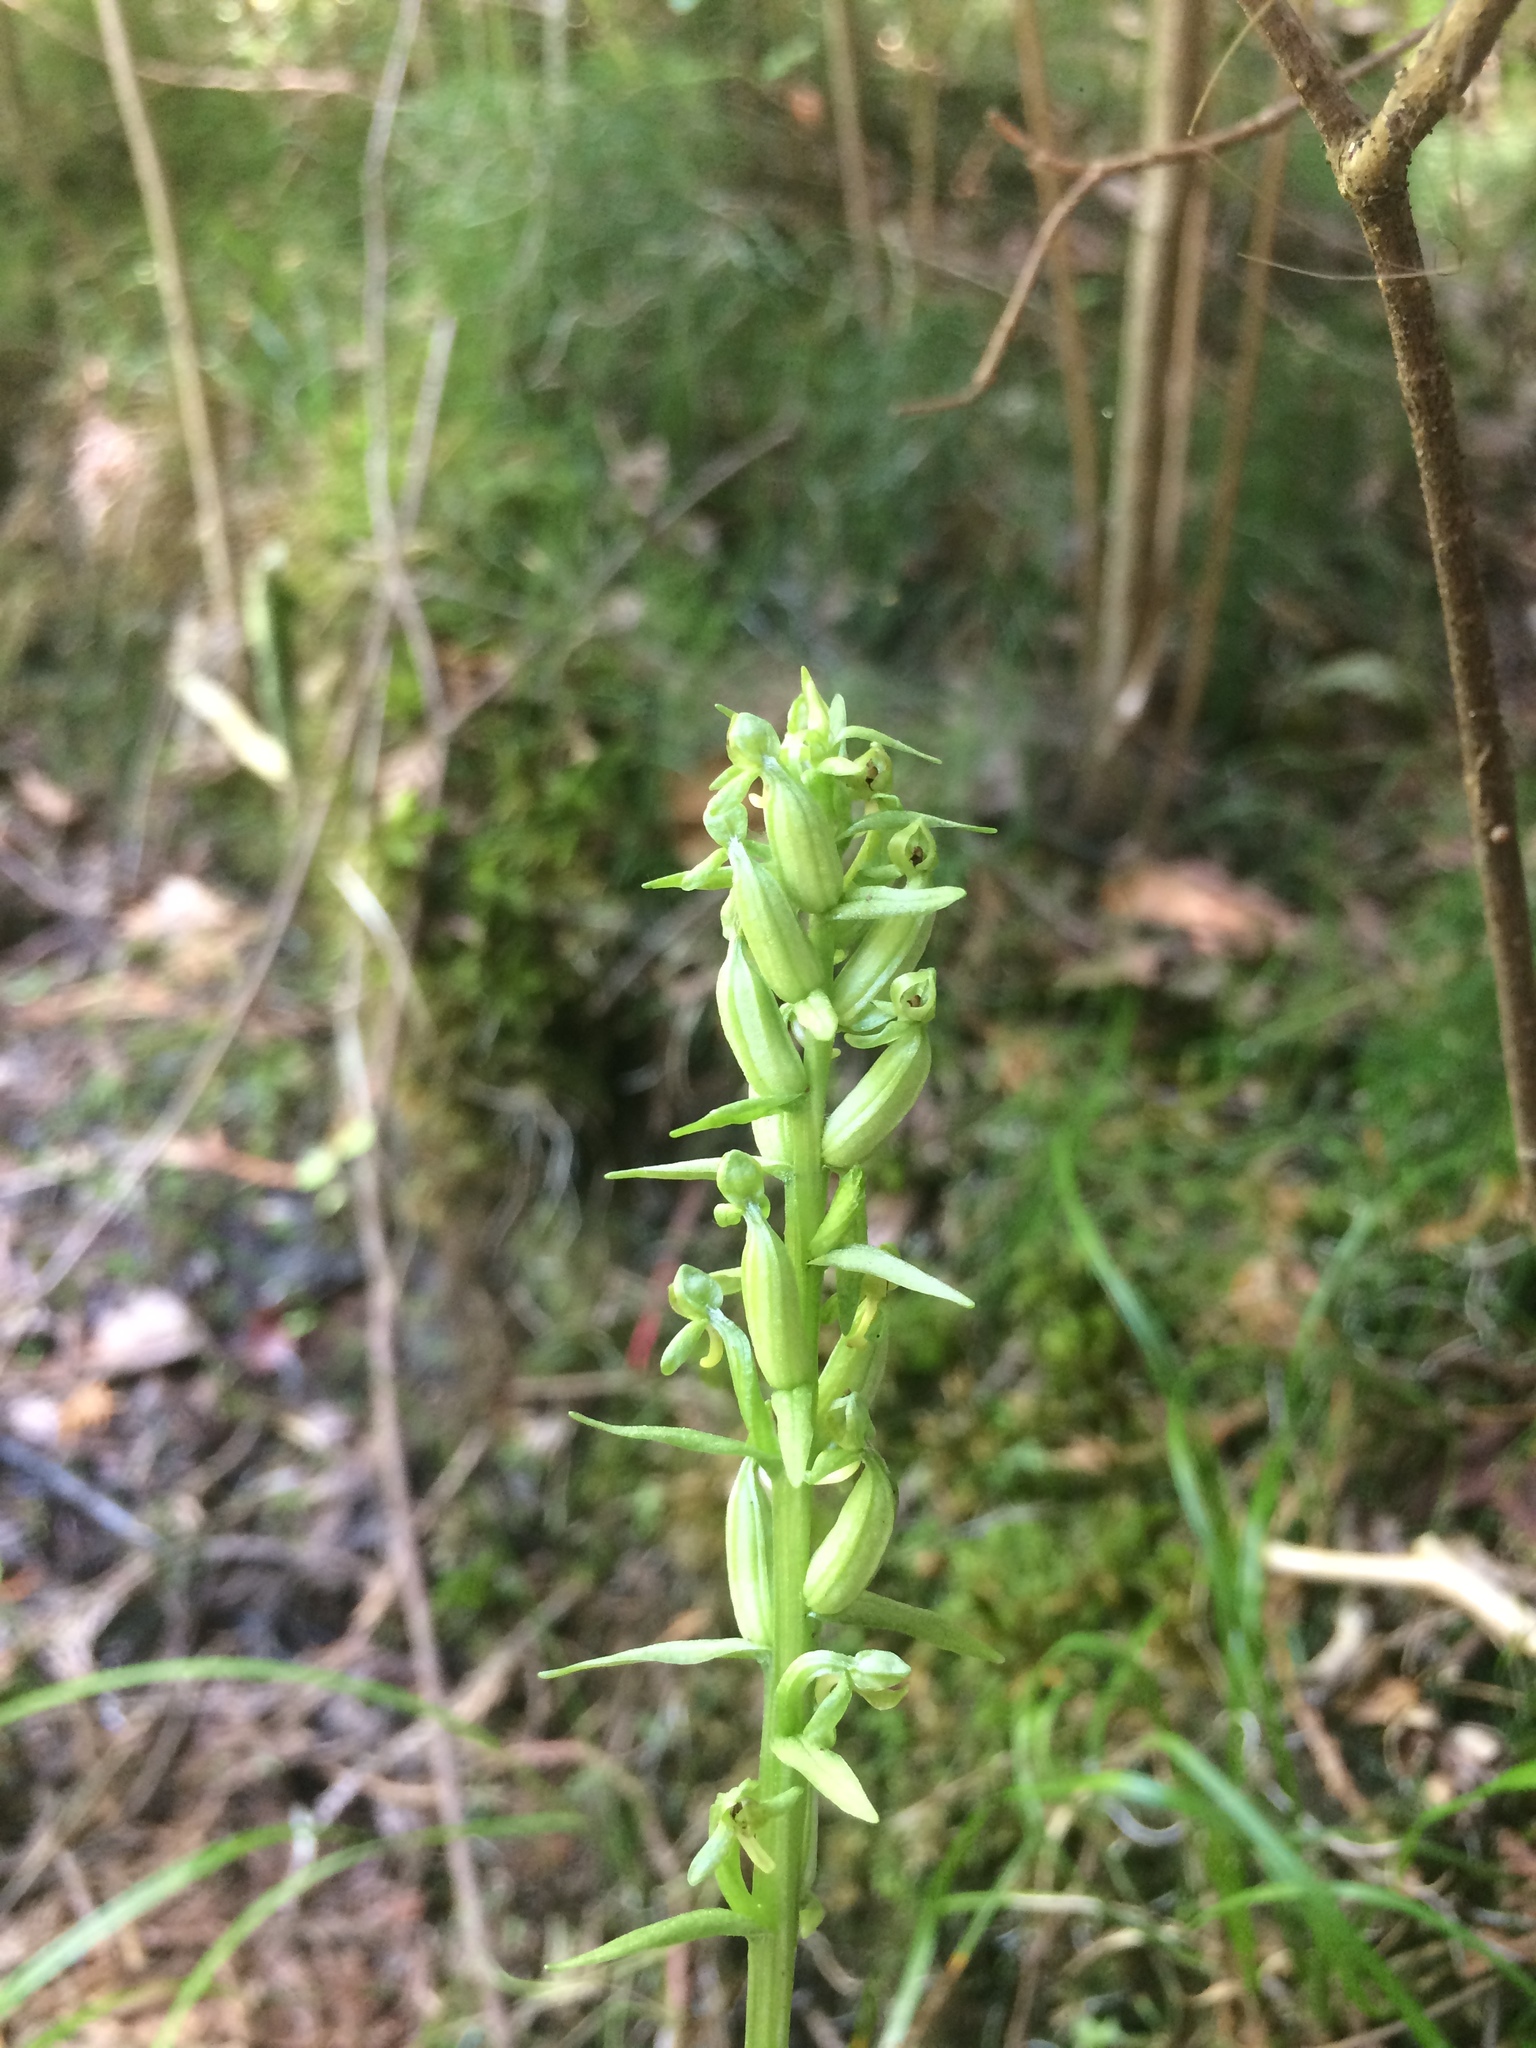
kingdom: Plantae
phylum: Tracheophyta
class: Liliopsida
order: Asparagales
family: Orchidaceae
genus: Platanthera
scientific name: Platanthera aquilonis
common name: Northern green orchid
